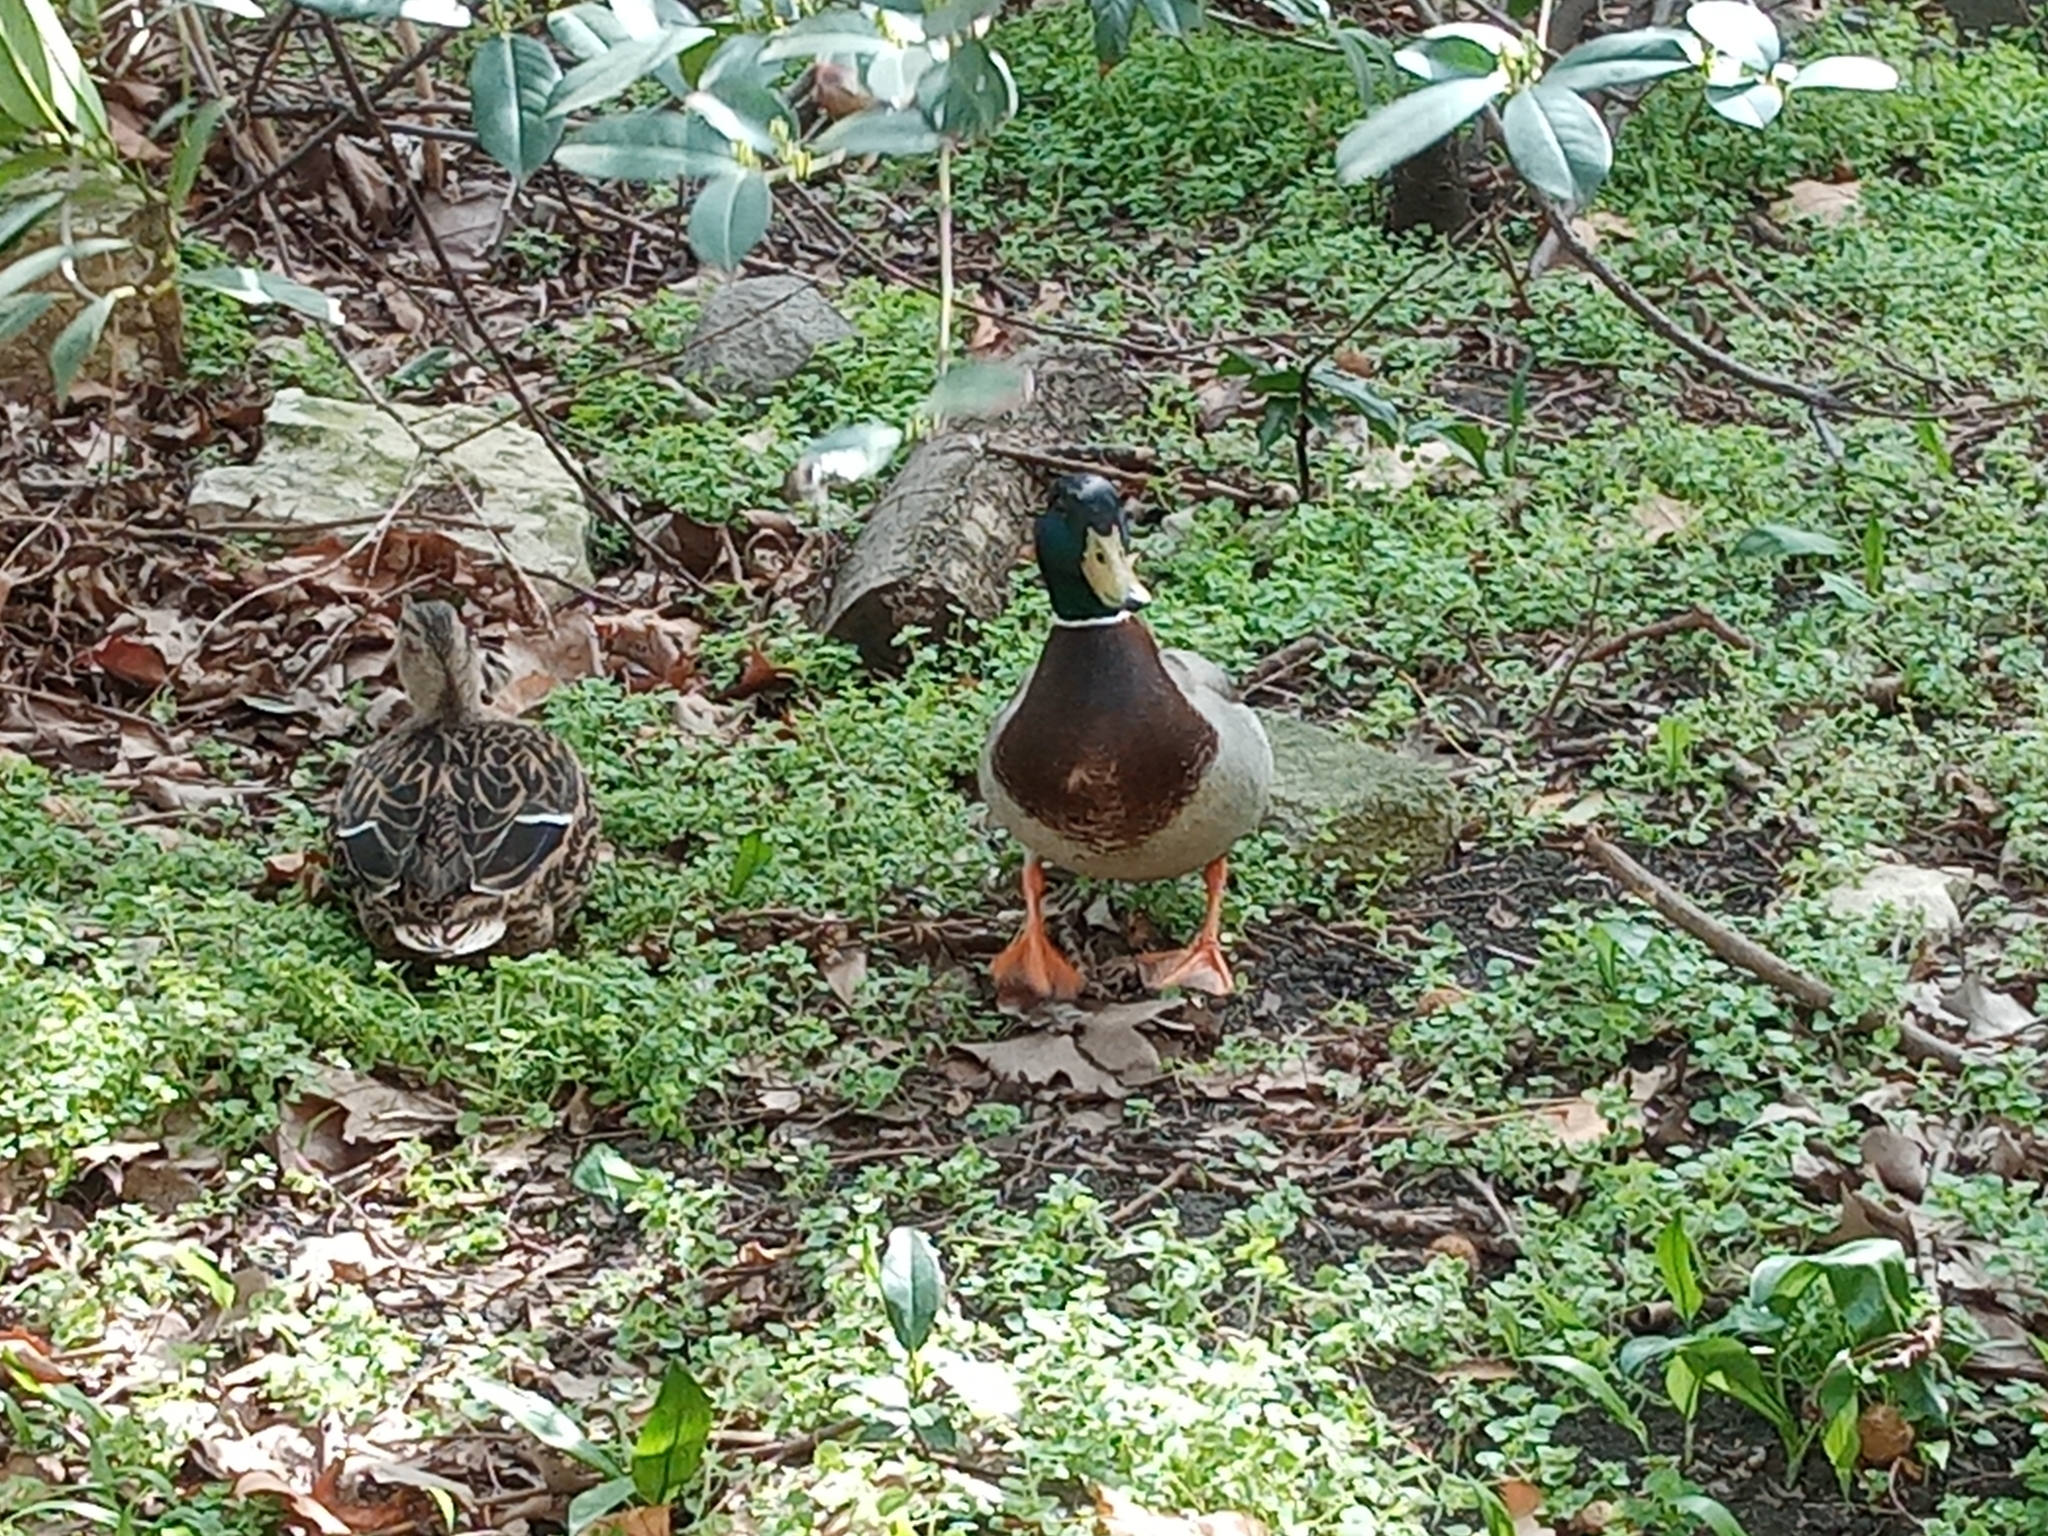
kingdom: Animalia
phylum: Chordata
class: Aves
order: Anseriformes
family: Anatidae
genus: Anas
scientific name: Anas platyrhynchos
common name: Mallard
